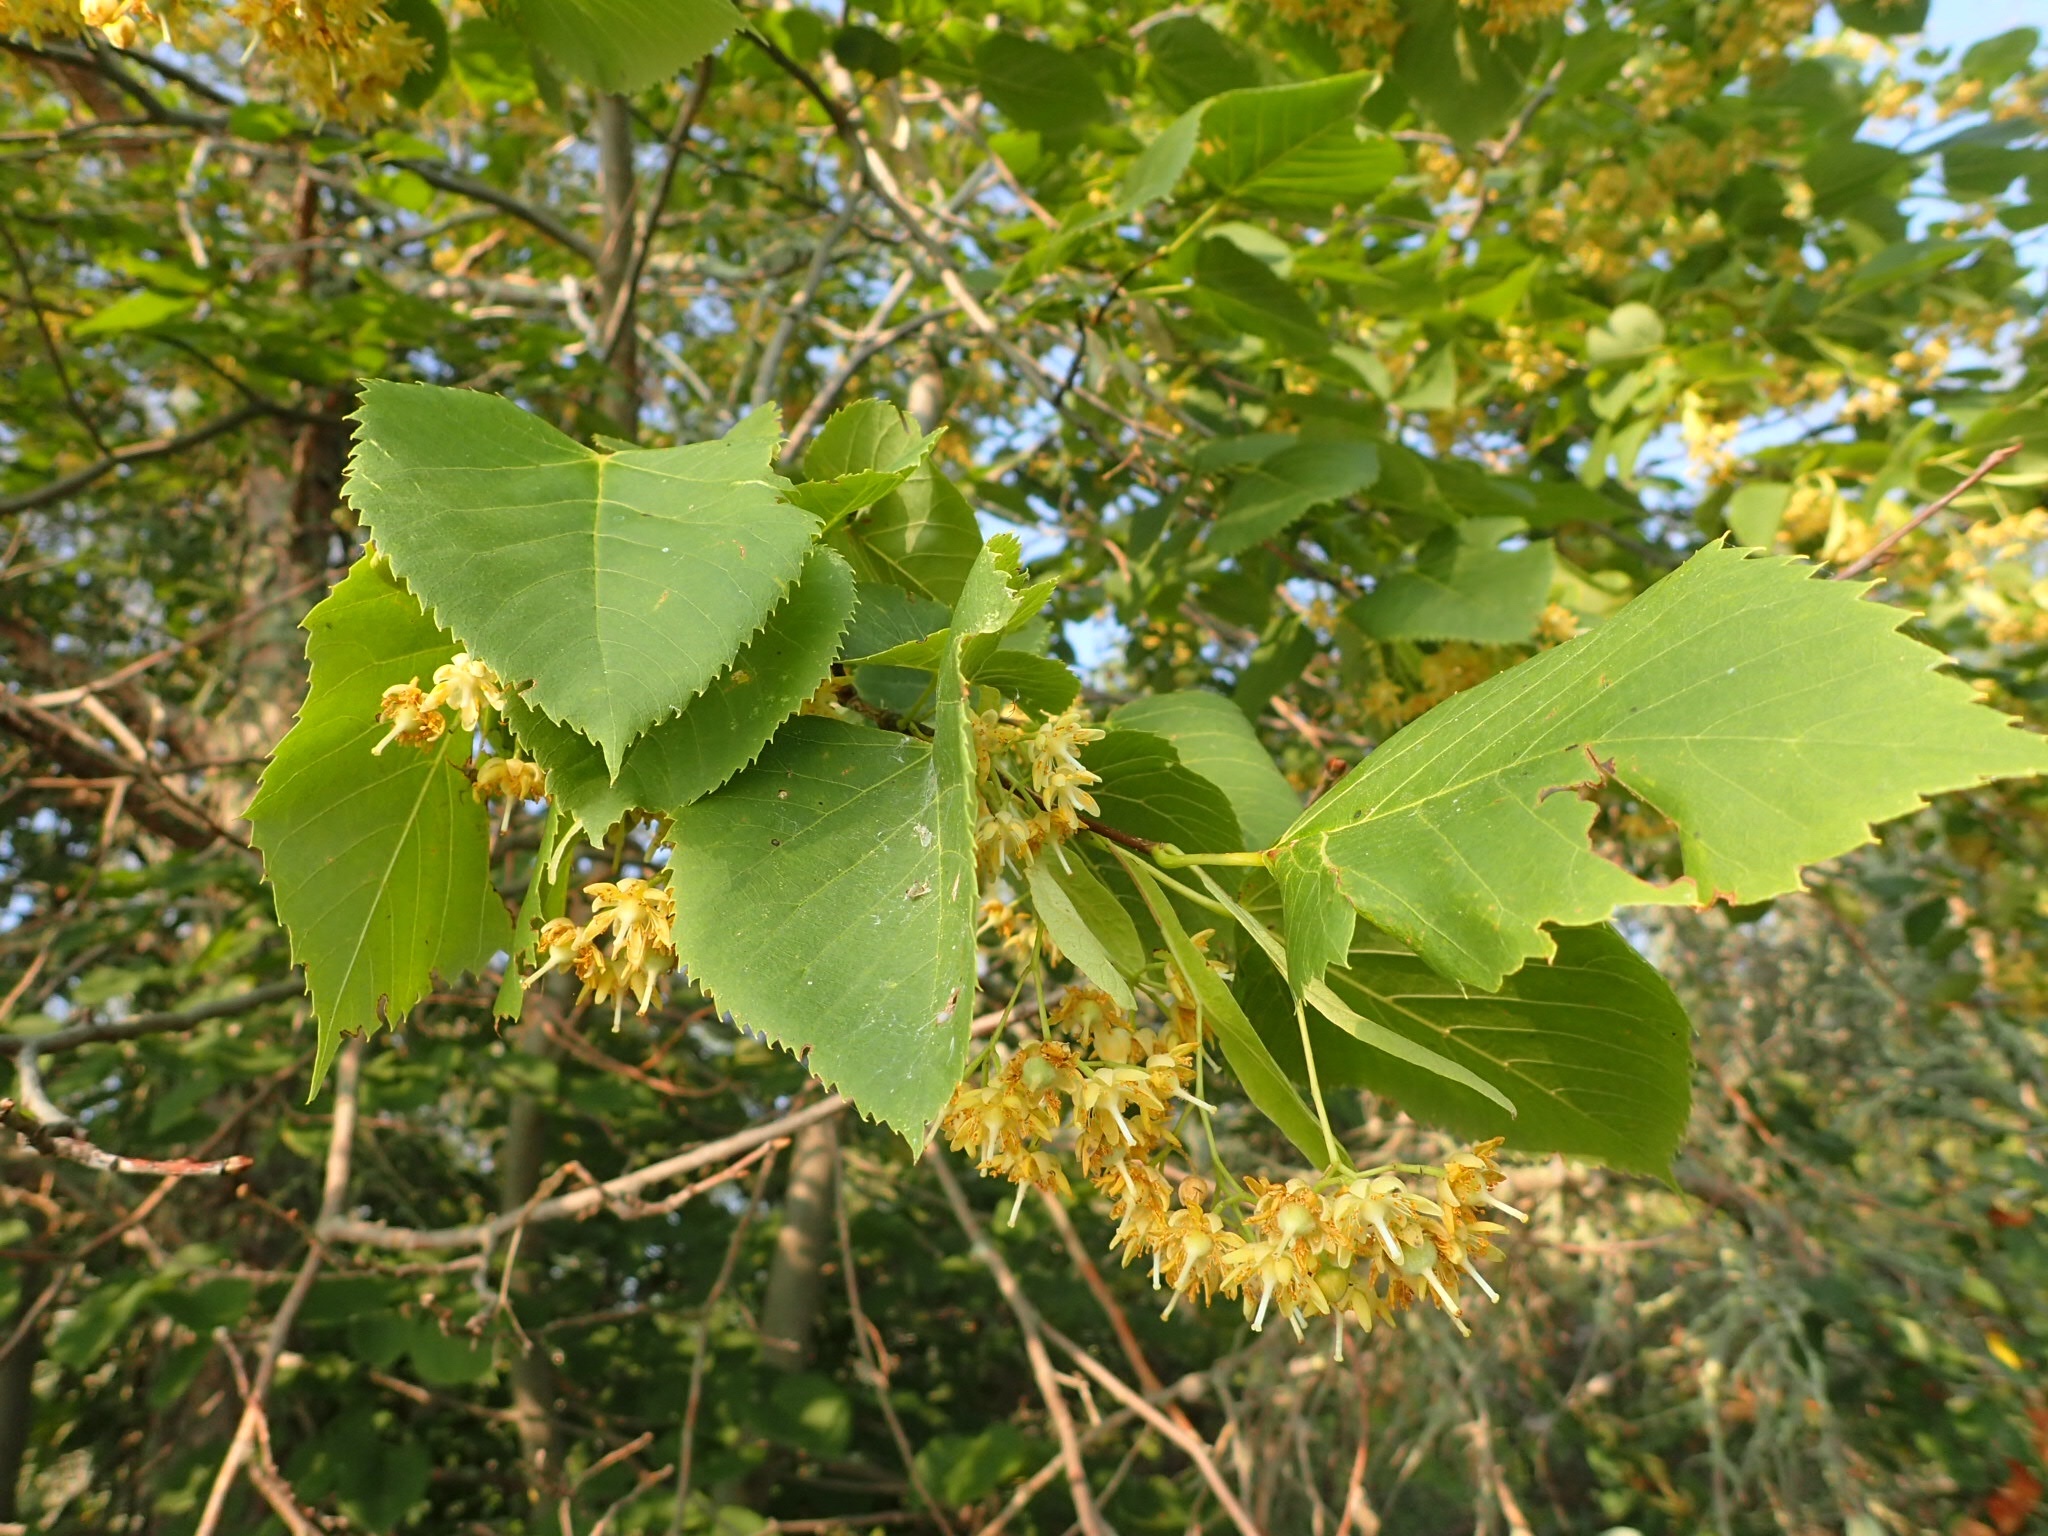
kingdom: Plantae
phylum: Tracheophyta
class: Magnoliopsida
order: Malvales
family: Malvaceae
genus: Tilia
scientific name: Tilia americana
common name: Basswood
